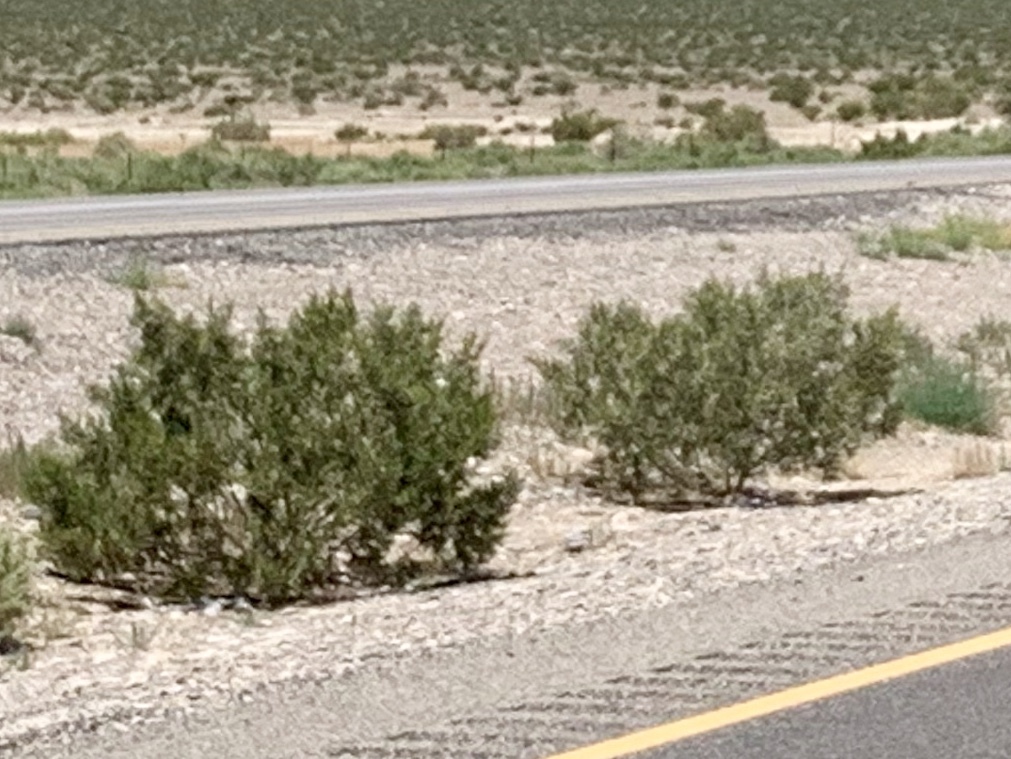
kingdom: Plantae
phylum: Tracheophyta
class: Magnoliopsida
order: Zygophyllales
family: Zygophyllaceae
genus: Larrea
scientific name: Larrea tridentata
